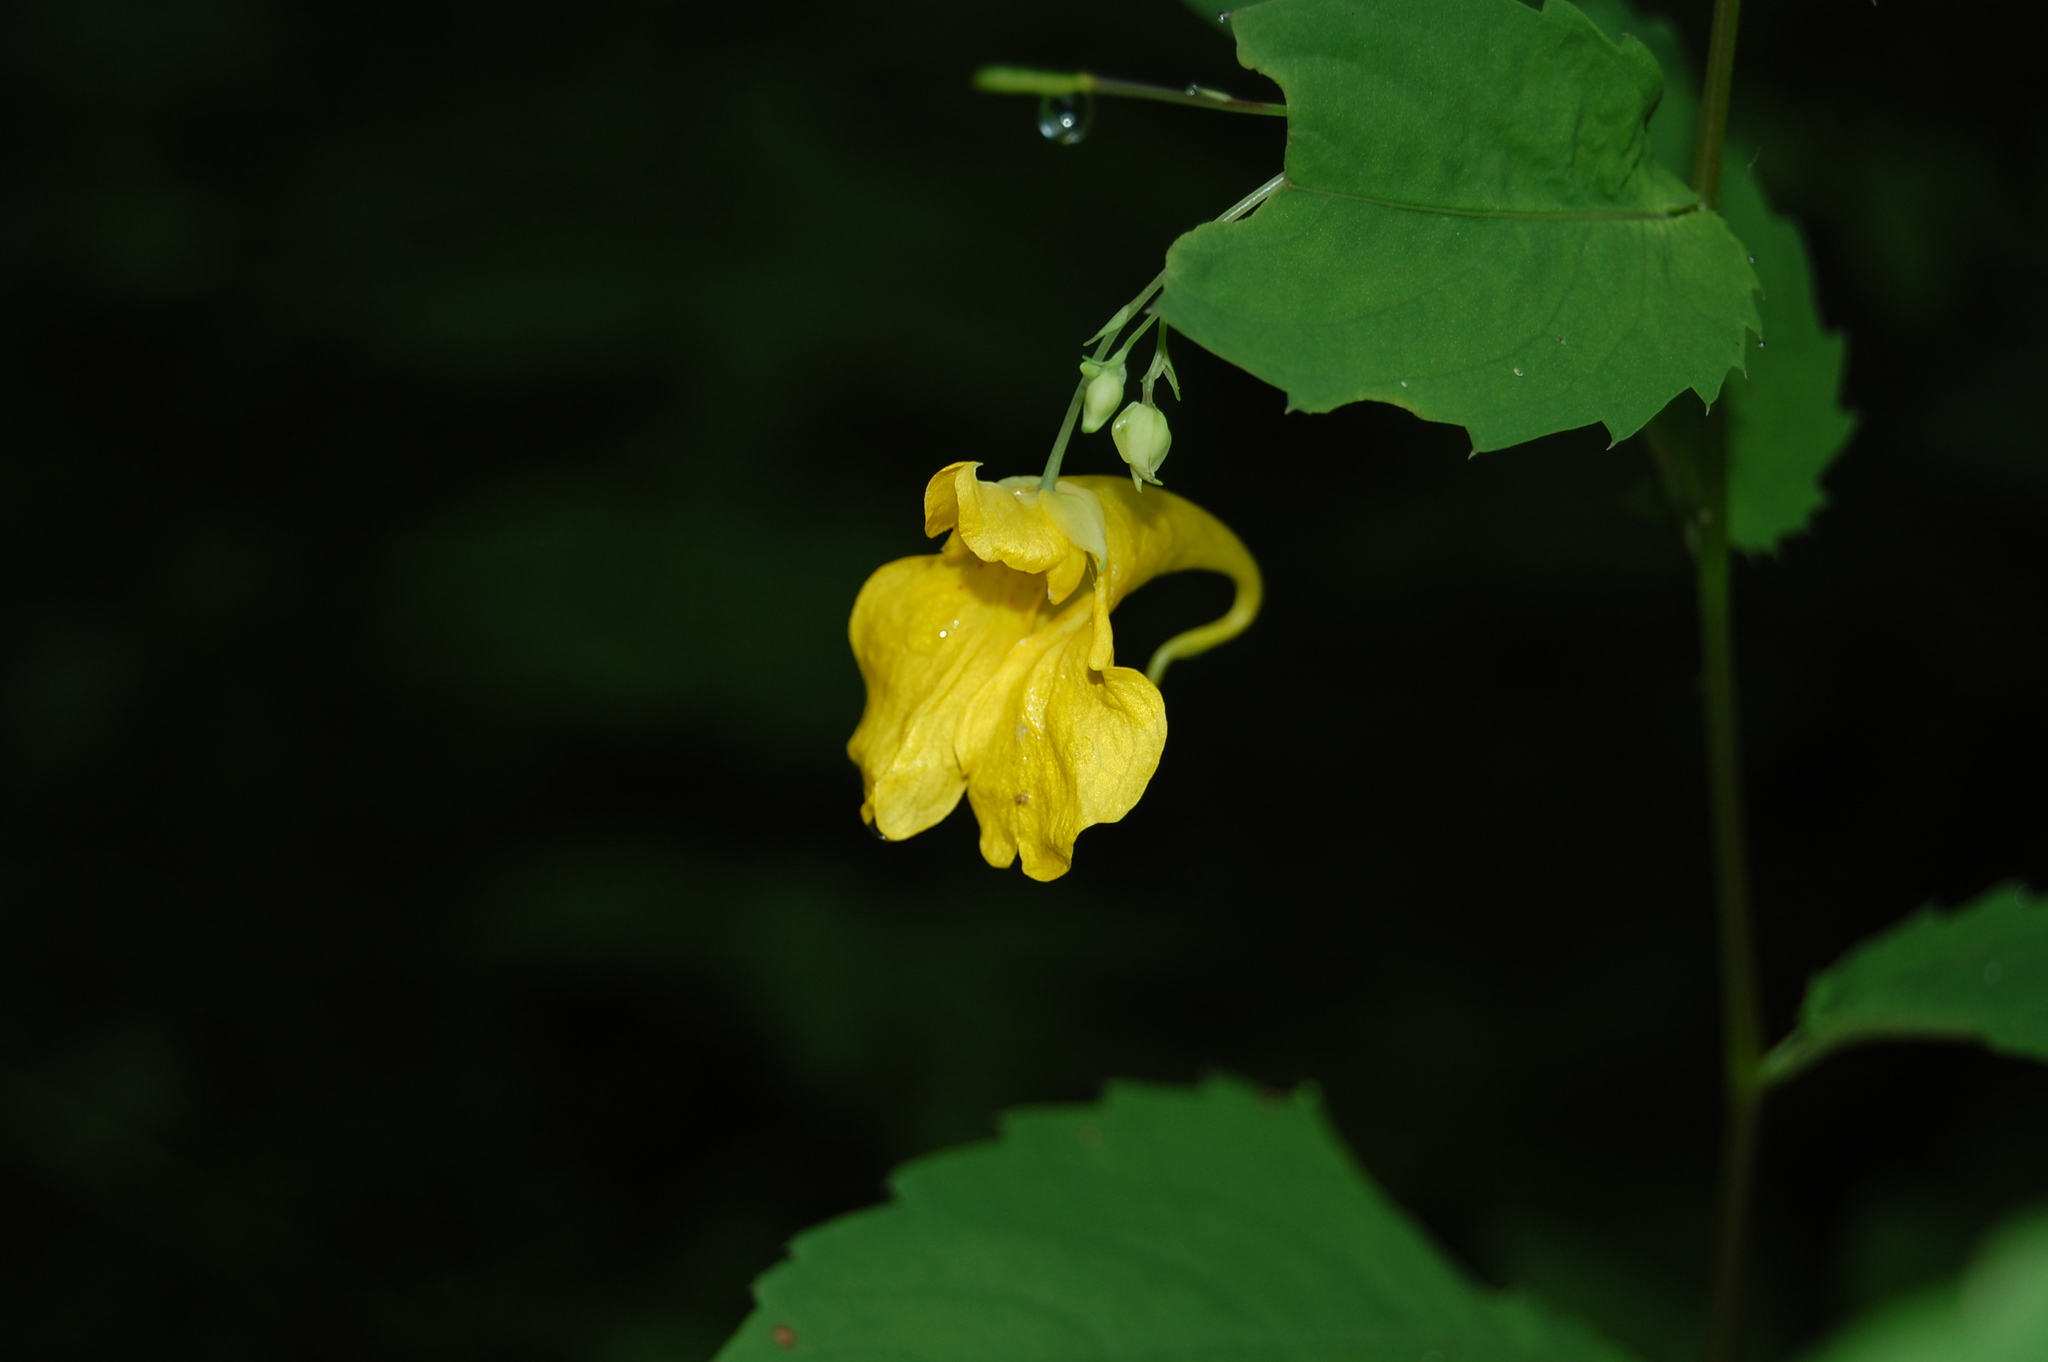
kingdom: Plantae
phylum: Tracheophyta
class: Magnoliopsida
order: Ericales
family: Balsaminaceae
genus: Impatiens
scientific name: Impatiens noli-tangere
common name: Touch-me-not balsam
